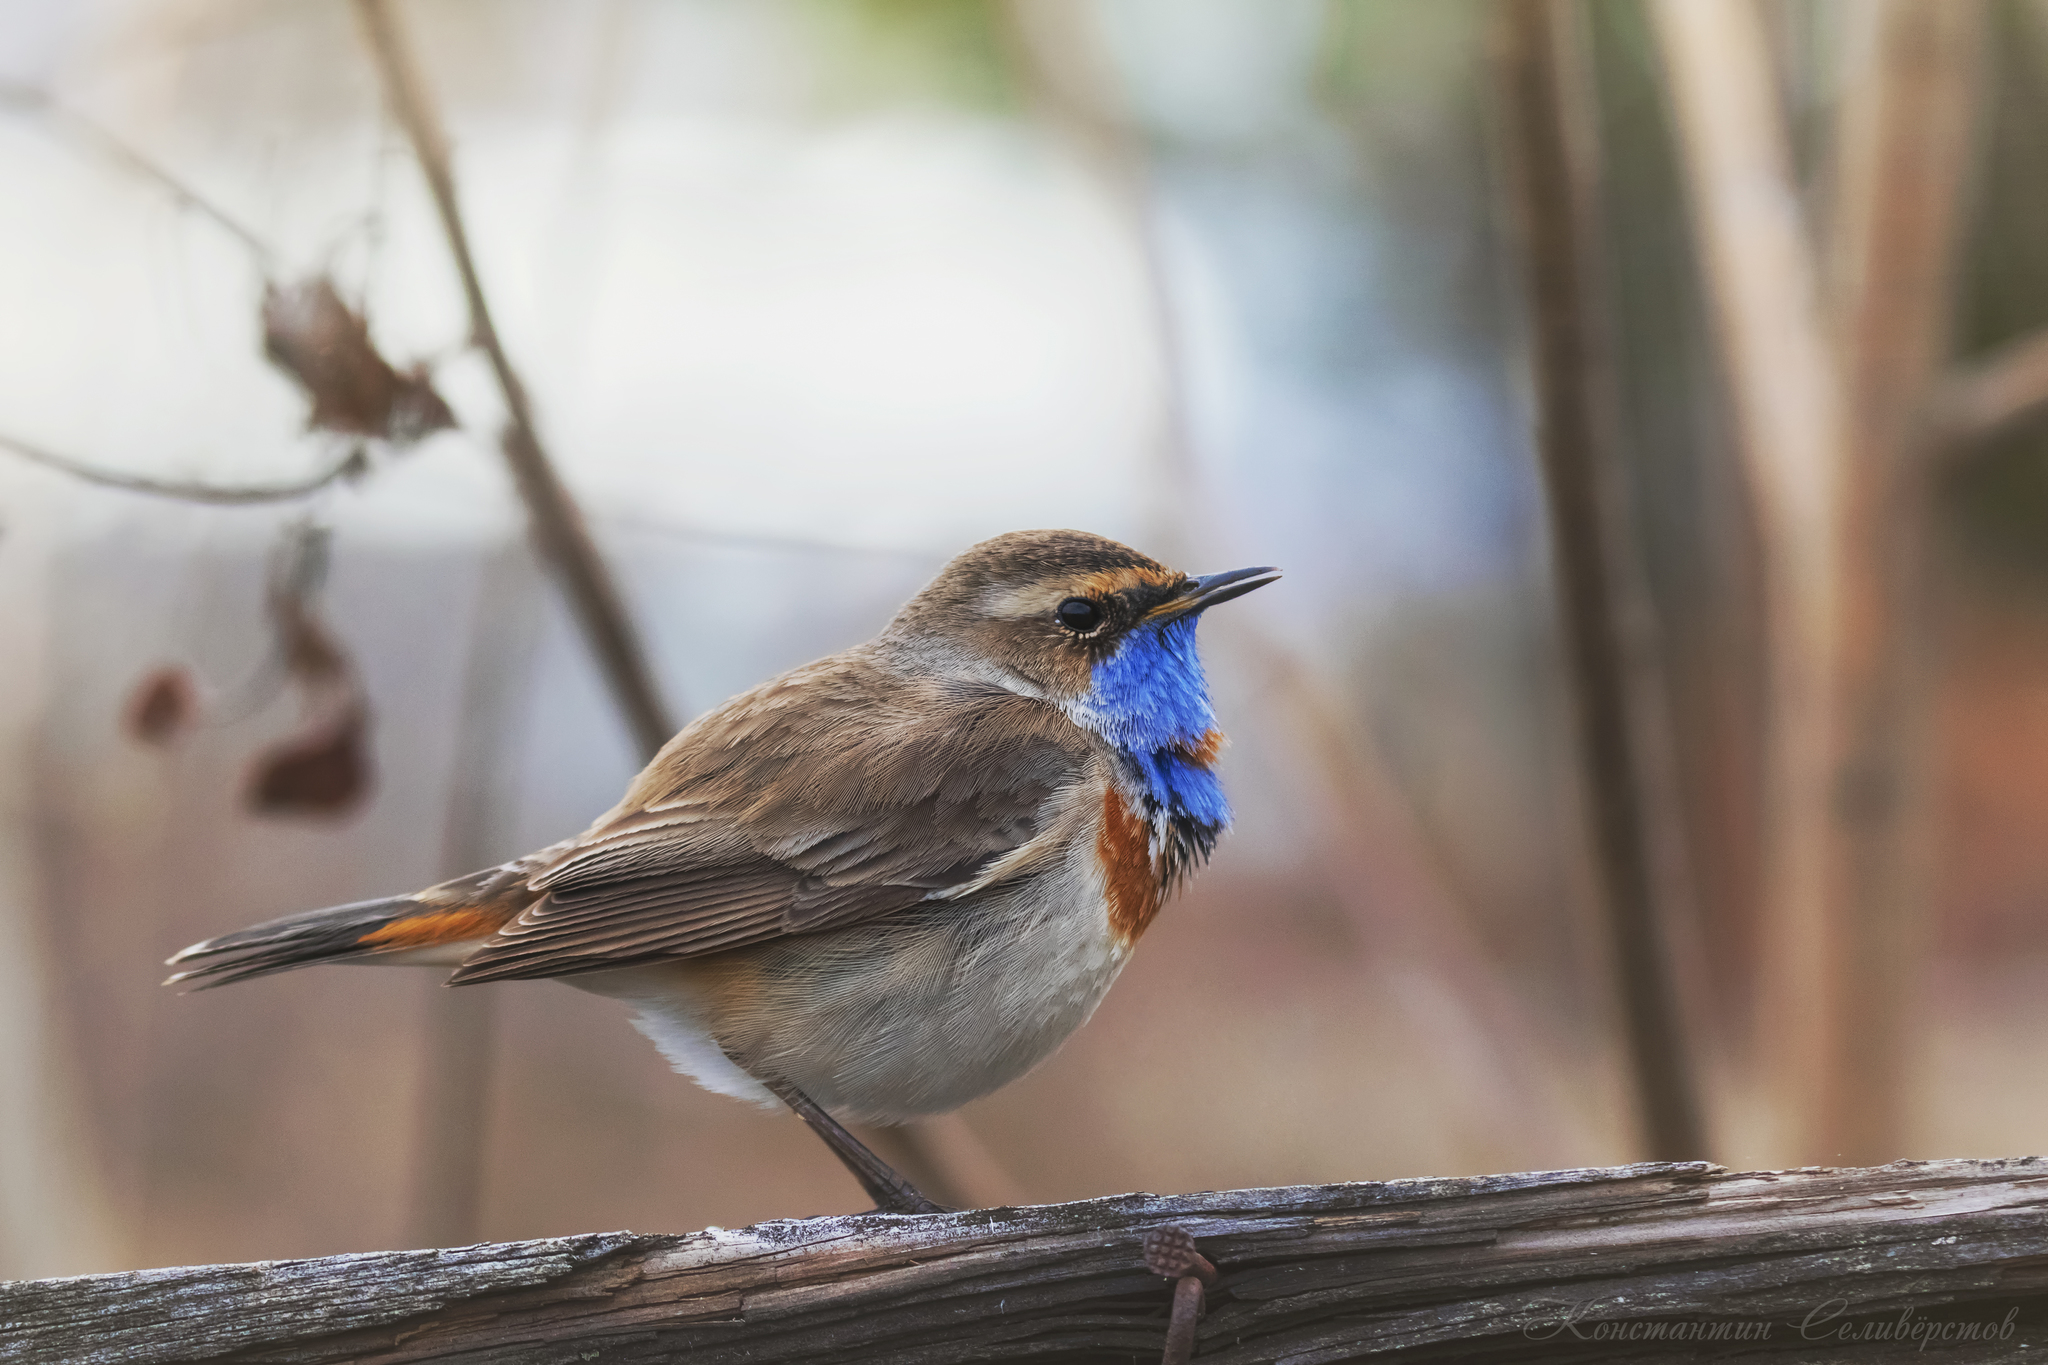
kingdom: Animalia
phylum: Chordata
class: Aves
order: Passeriformes
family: Muscicapidae
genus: Luscinia
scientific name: Luscinia svecica
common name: Bluethroat
